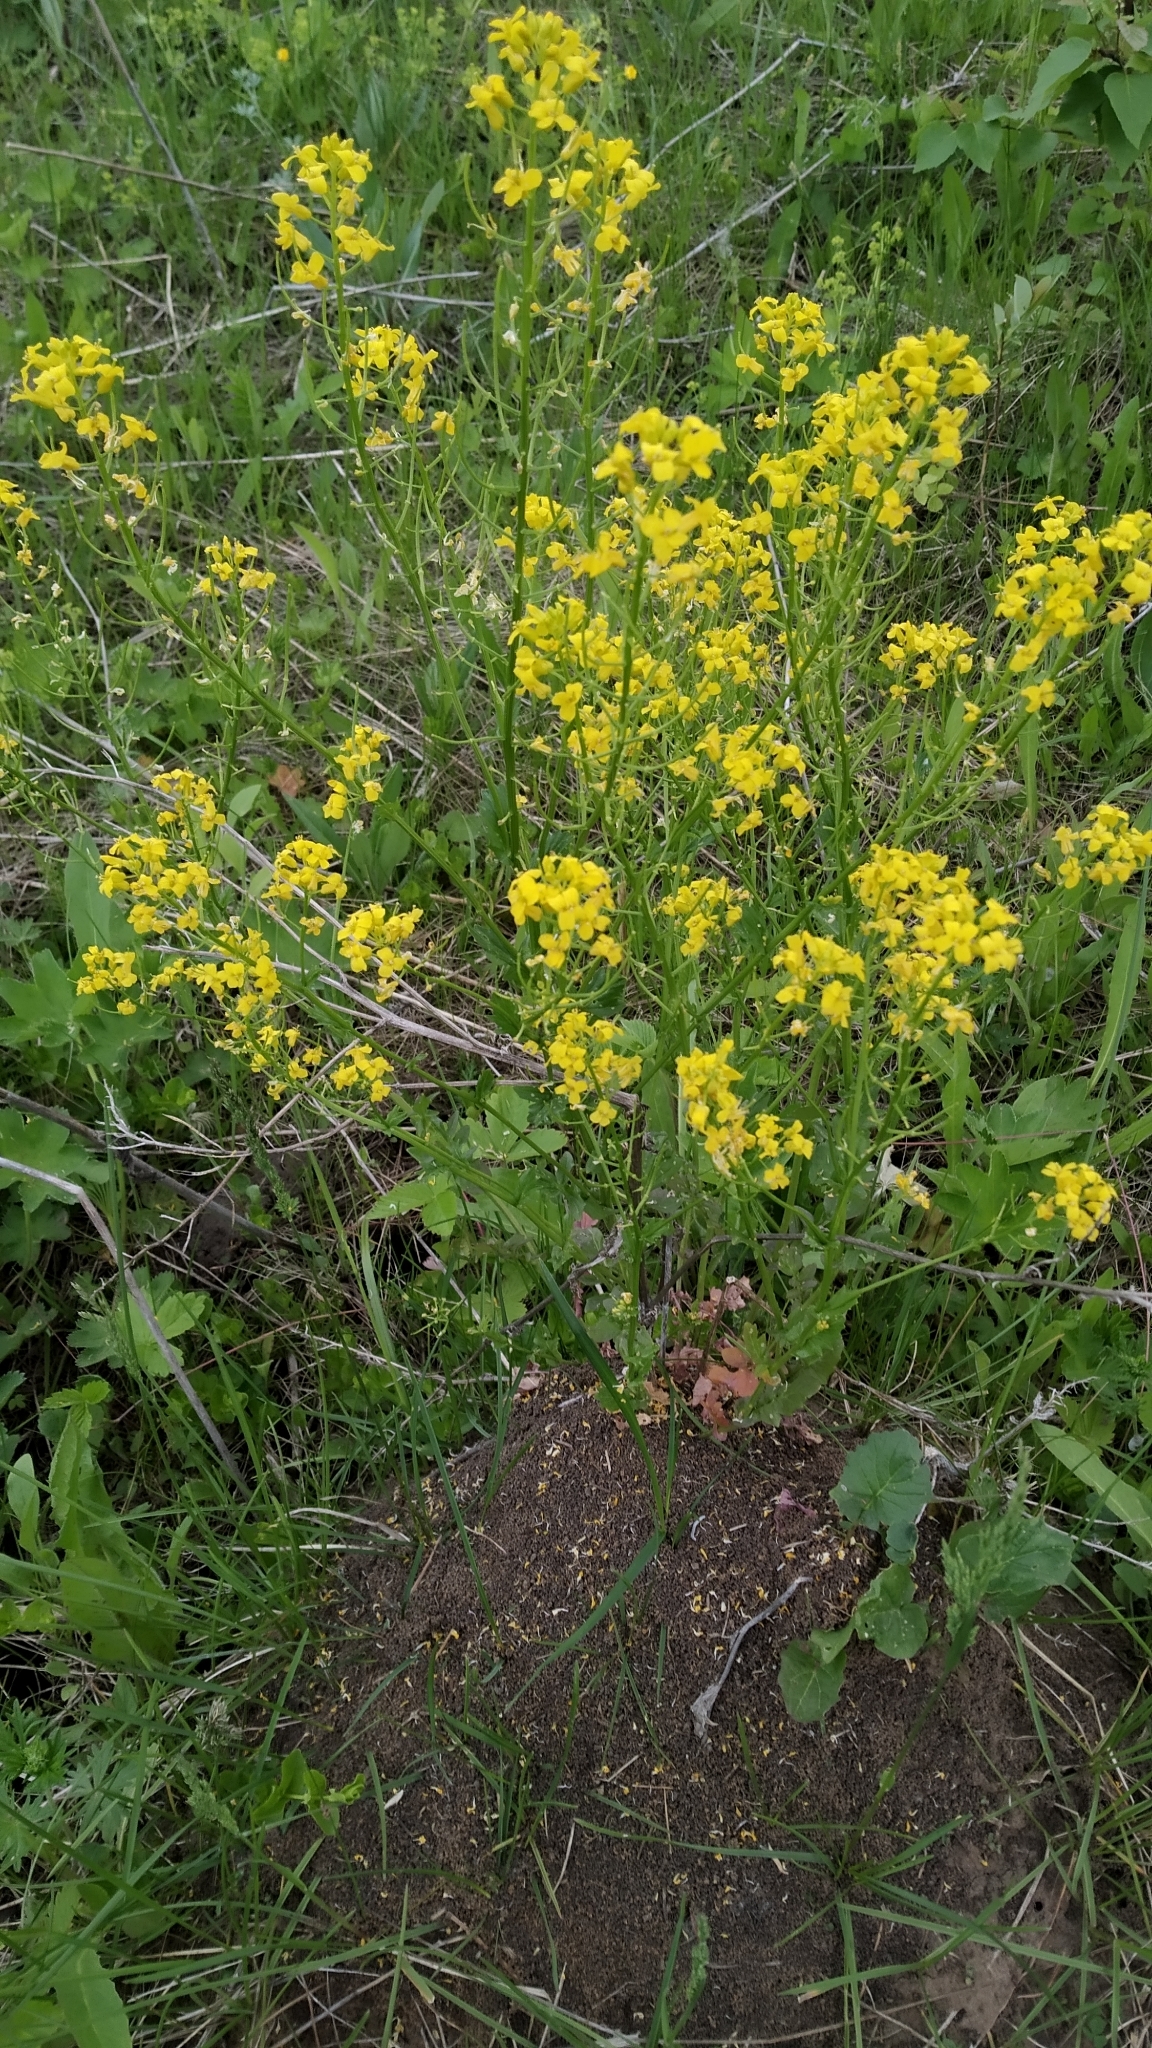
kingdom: Plantae
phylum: Tracheophyta
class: Magnoliopsida
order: Brassicales
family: Brassicaceae
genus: Barbarea
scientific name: Barbarea vulgaris
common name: Cressy-greens
